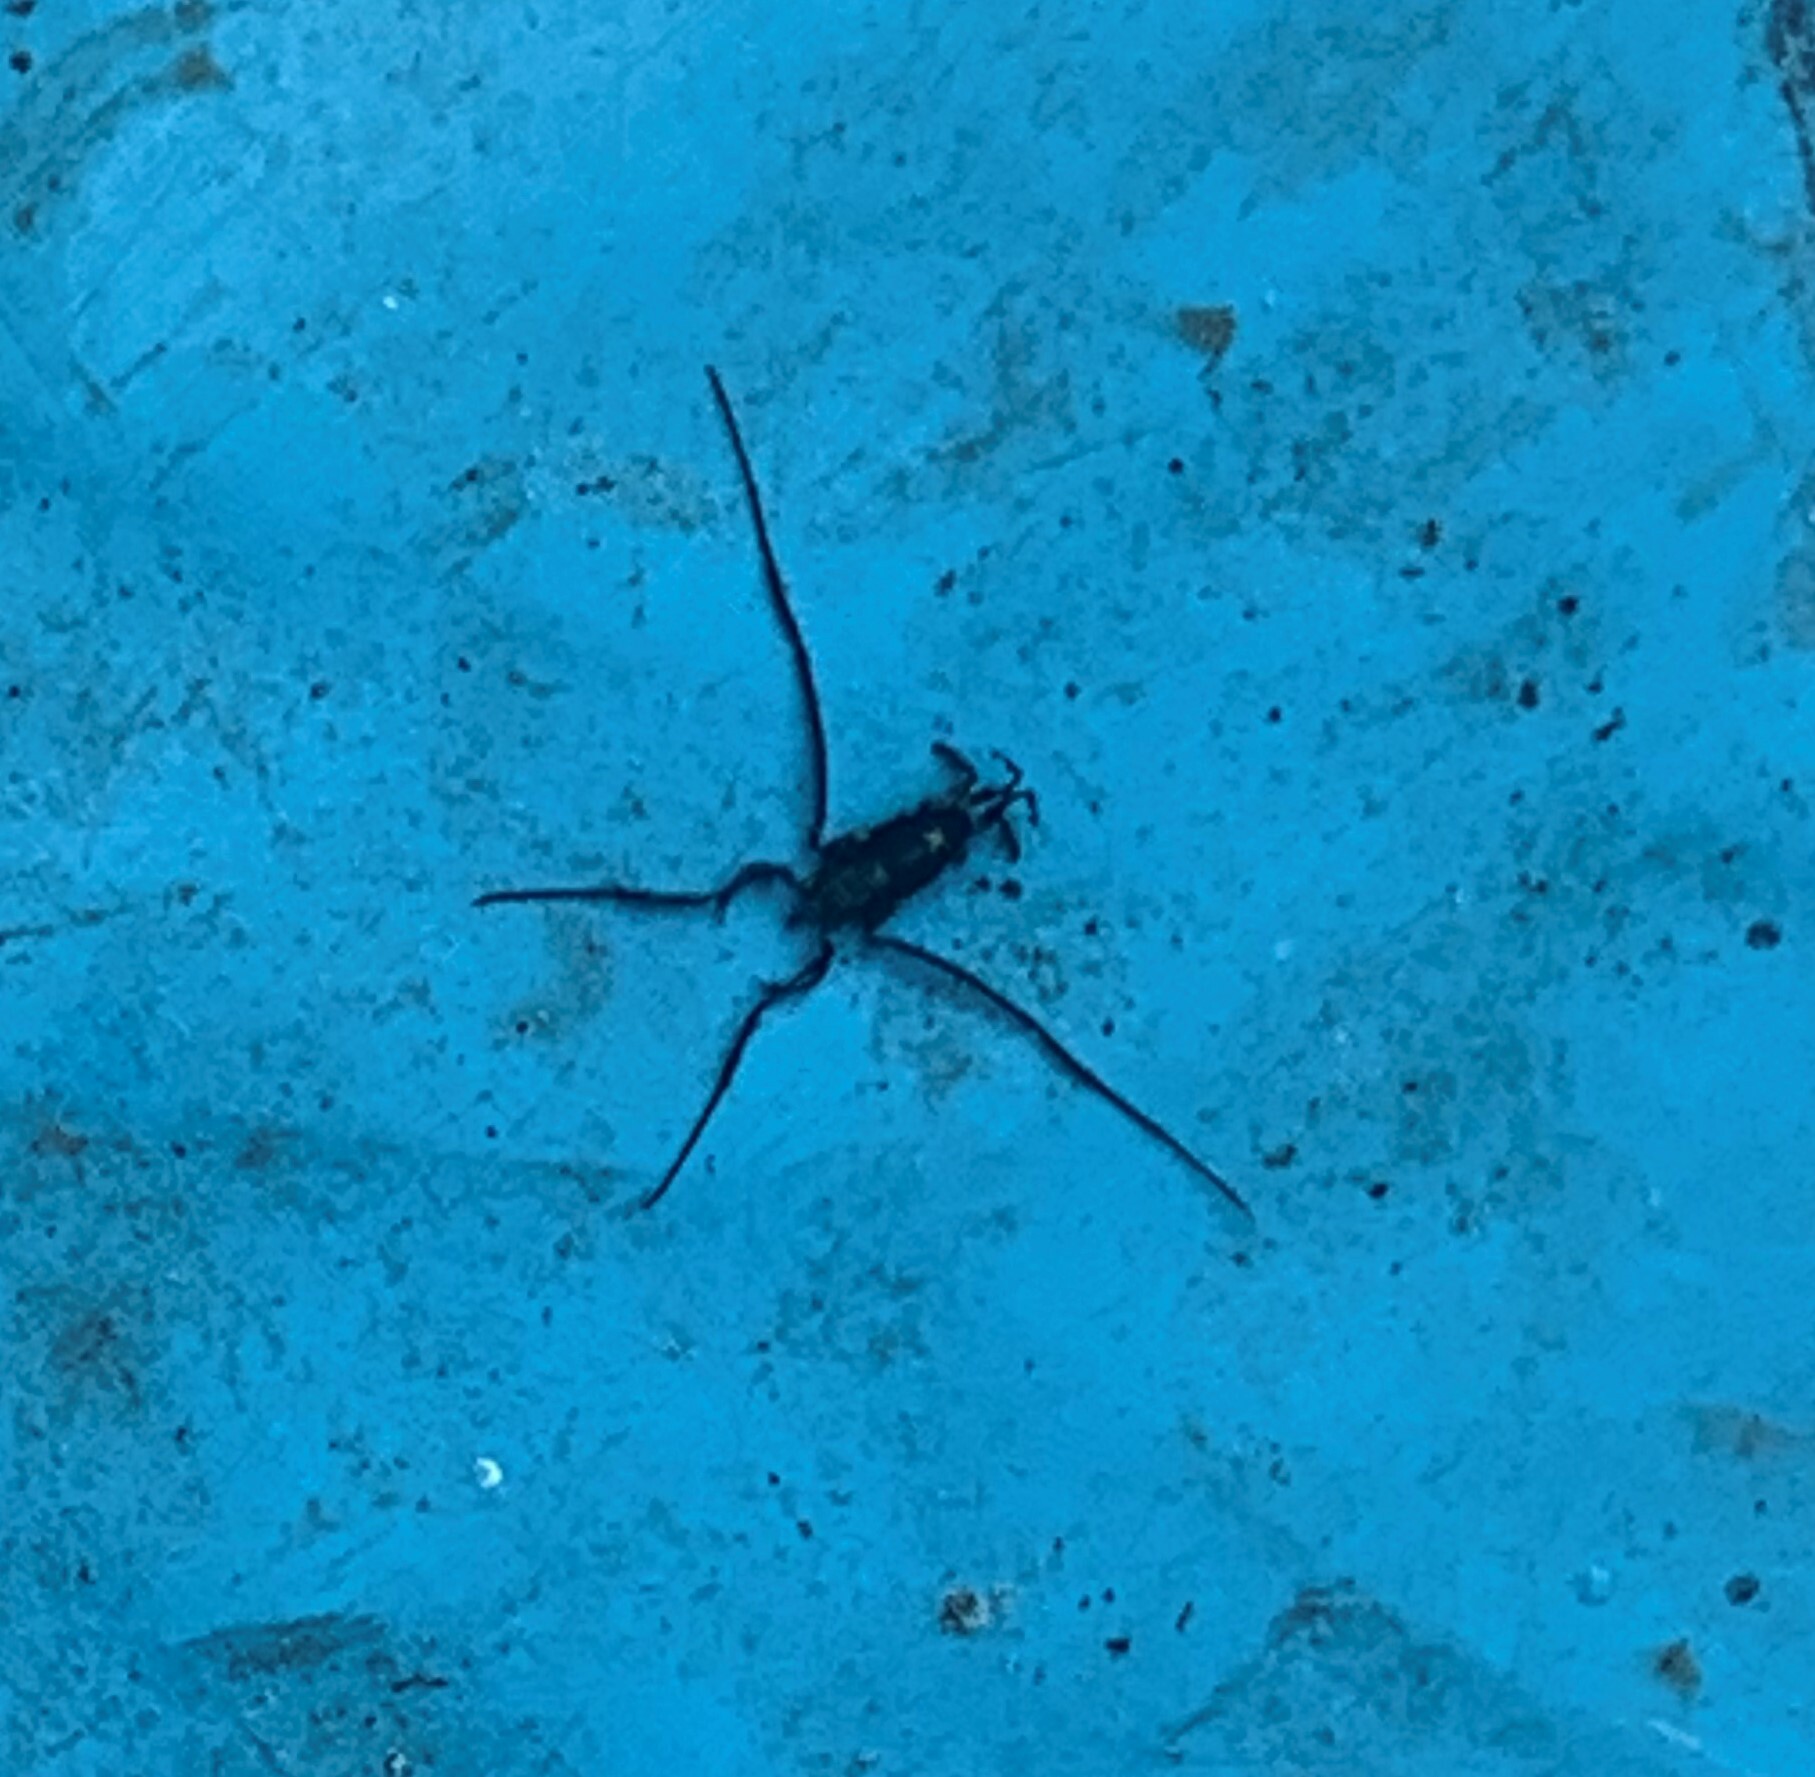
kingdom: Animalia
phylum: Arthropoda
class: Insecta
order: Hemiptera
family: Gerridae
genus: Rheumatobates
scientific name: Rheumatobates rileyi
